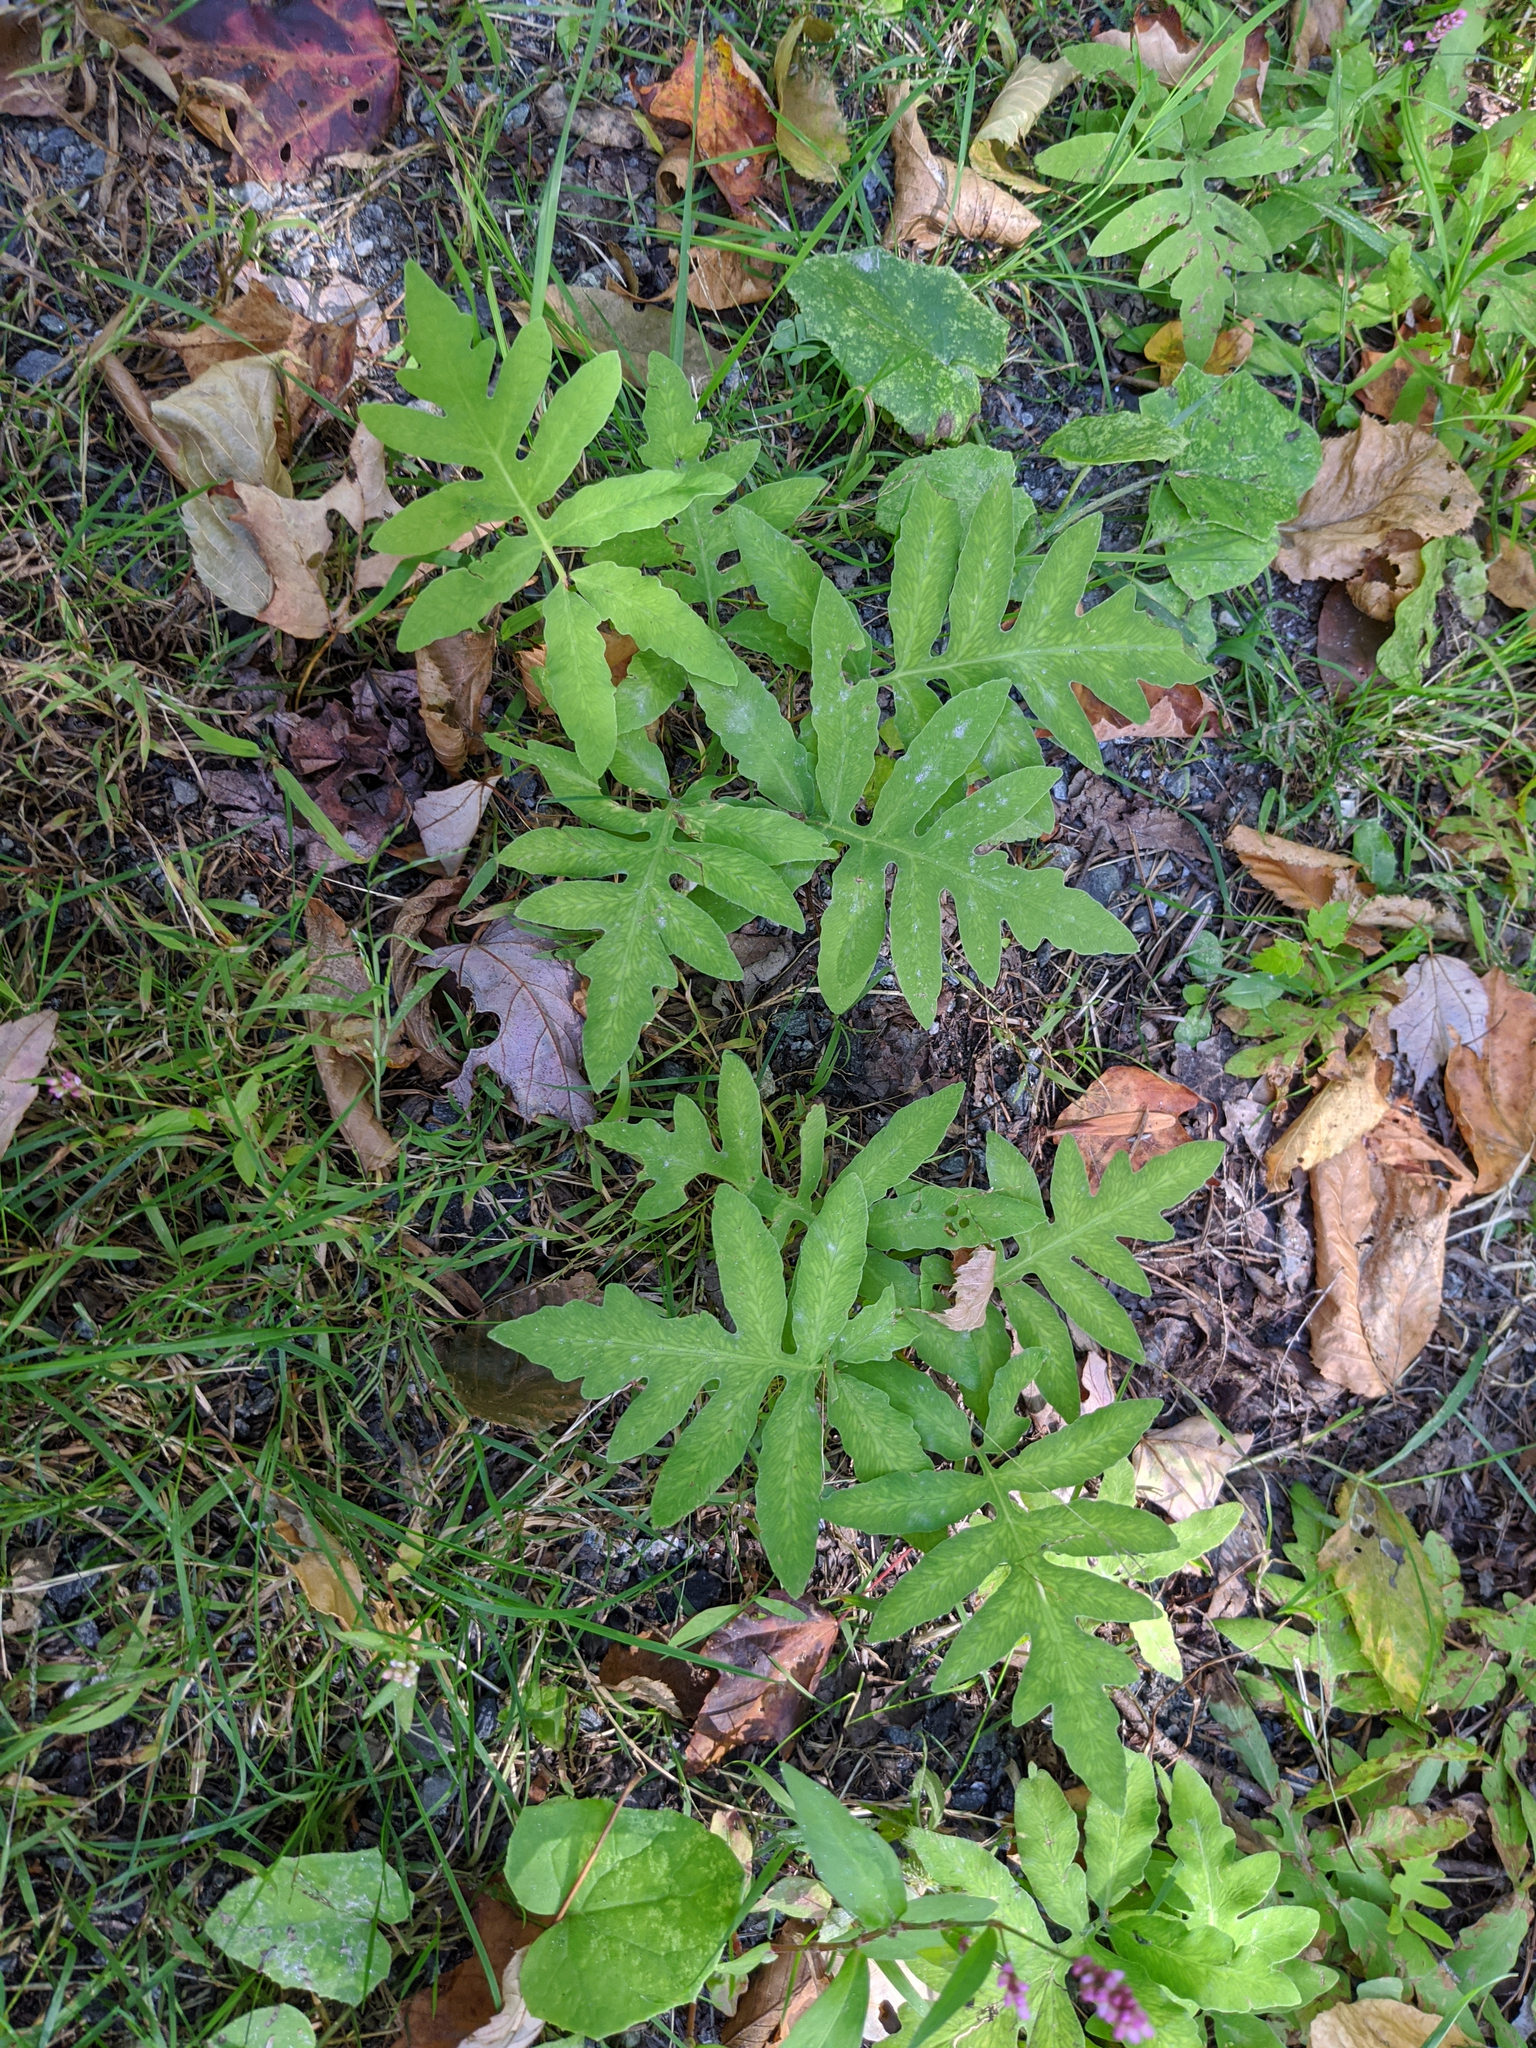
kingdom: Plantae
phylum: Tracheophyta
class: Polypodiopsida
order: Polypodiales
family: Onocleaceae
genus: Onoclea
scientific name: Onoclea sensibilis
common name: Sensitive fern
